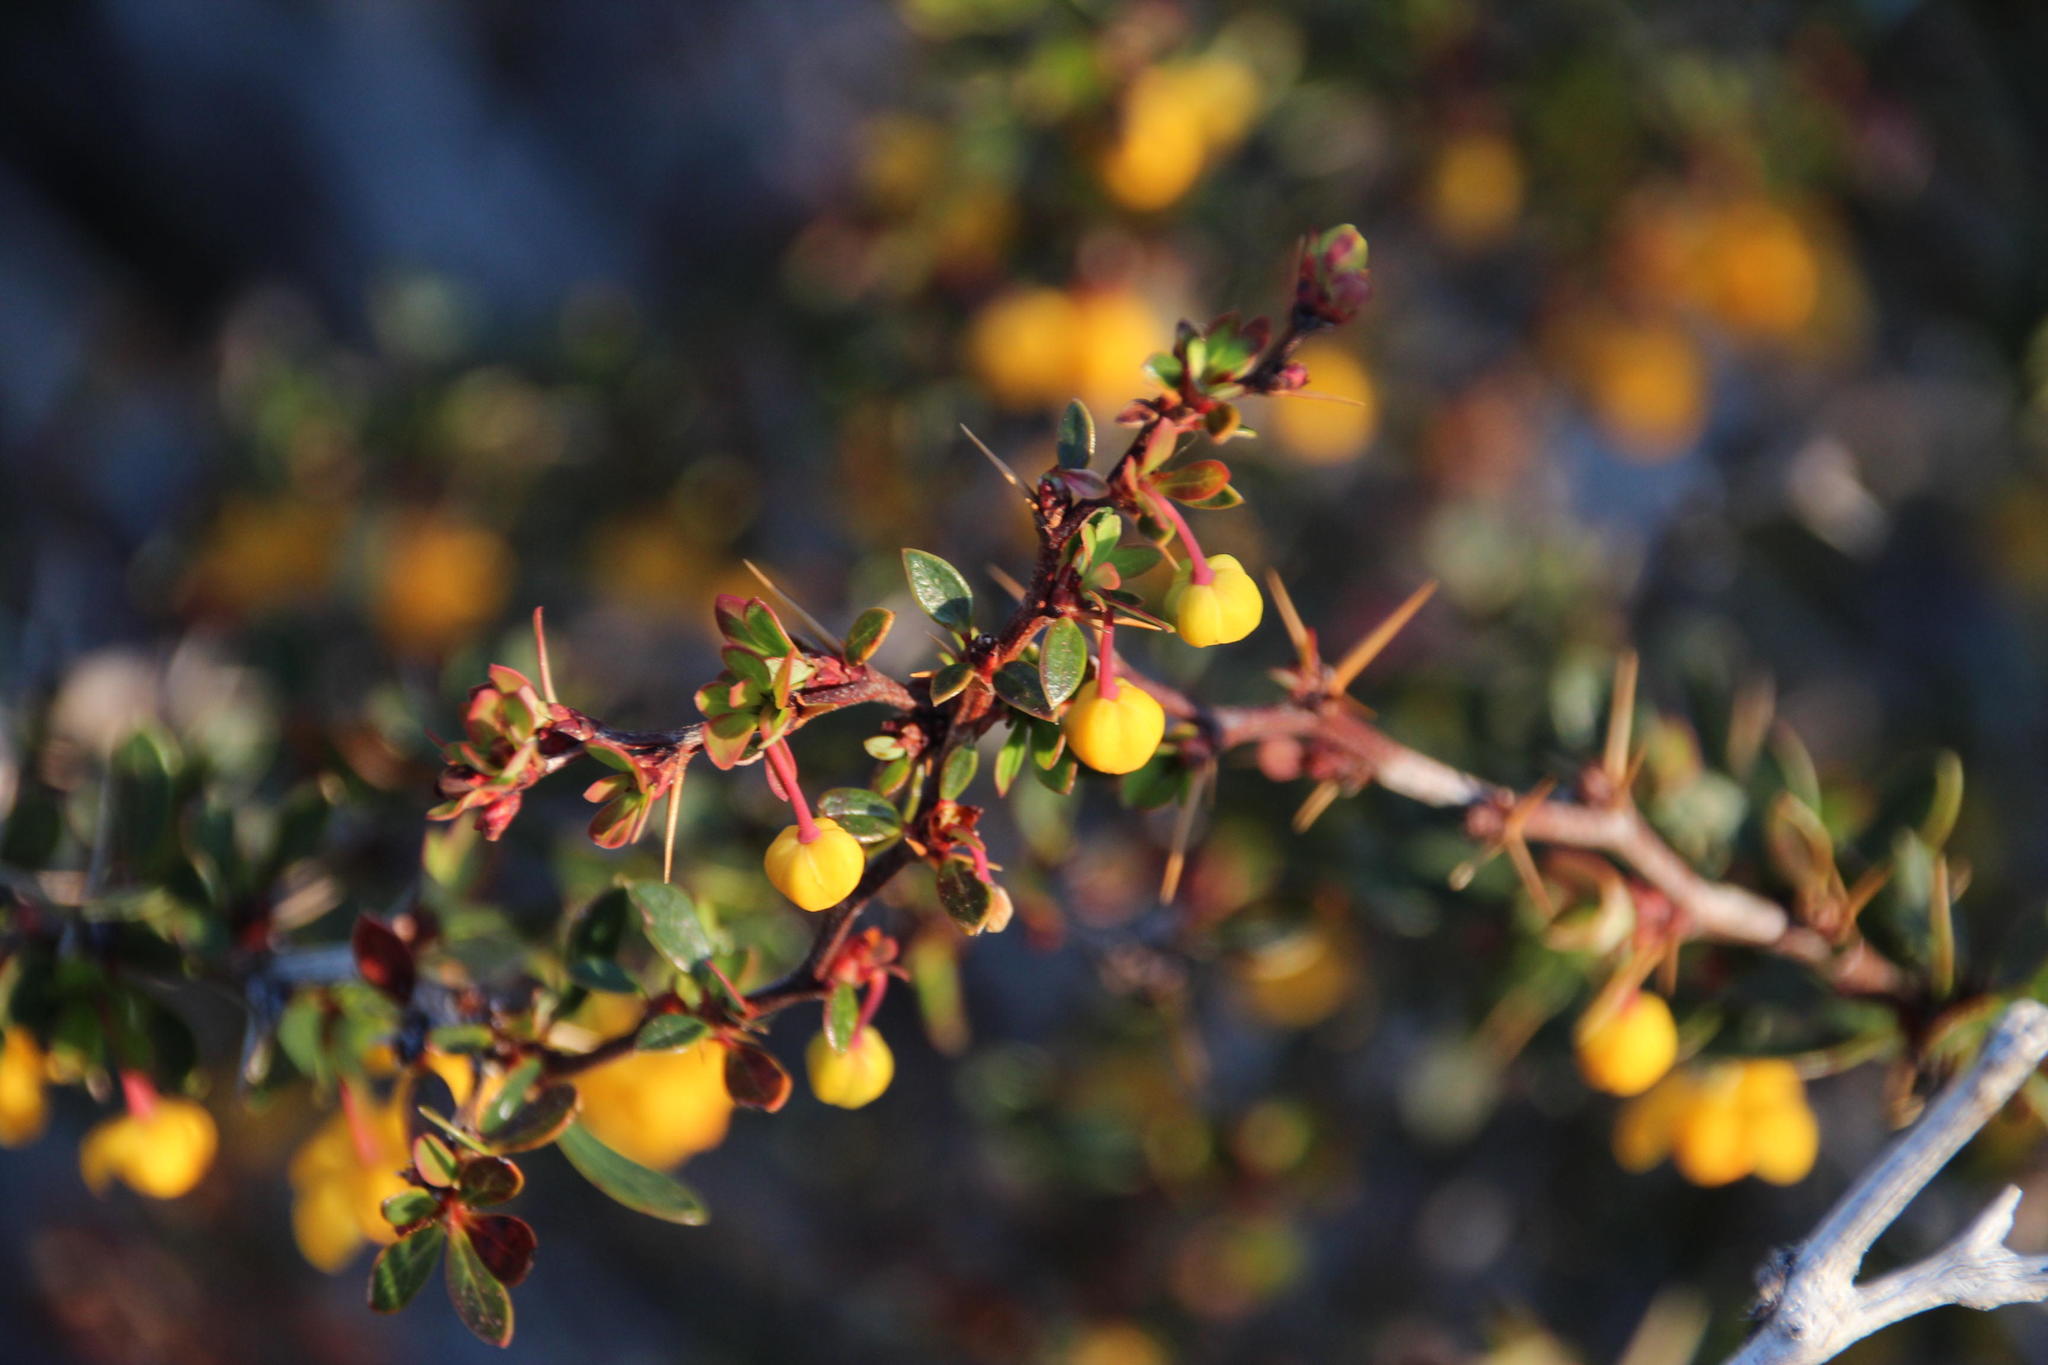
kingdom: Plantae
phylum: Tracheophyta
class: Magnoliopsida
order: Ranunculales
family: Berberidaceae
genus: Berberis
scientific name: Berberis microphylla
